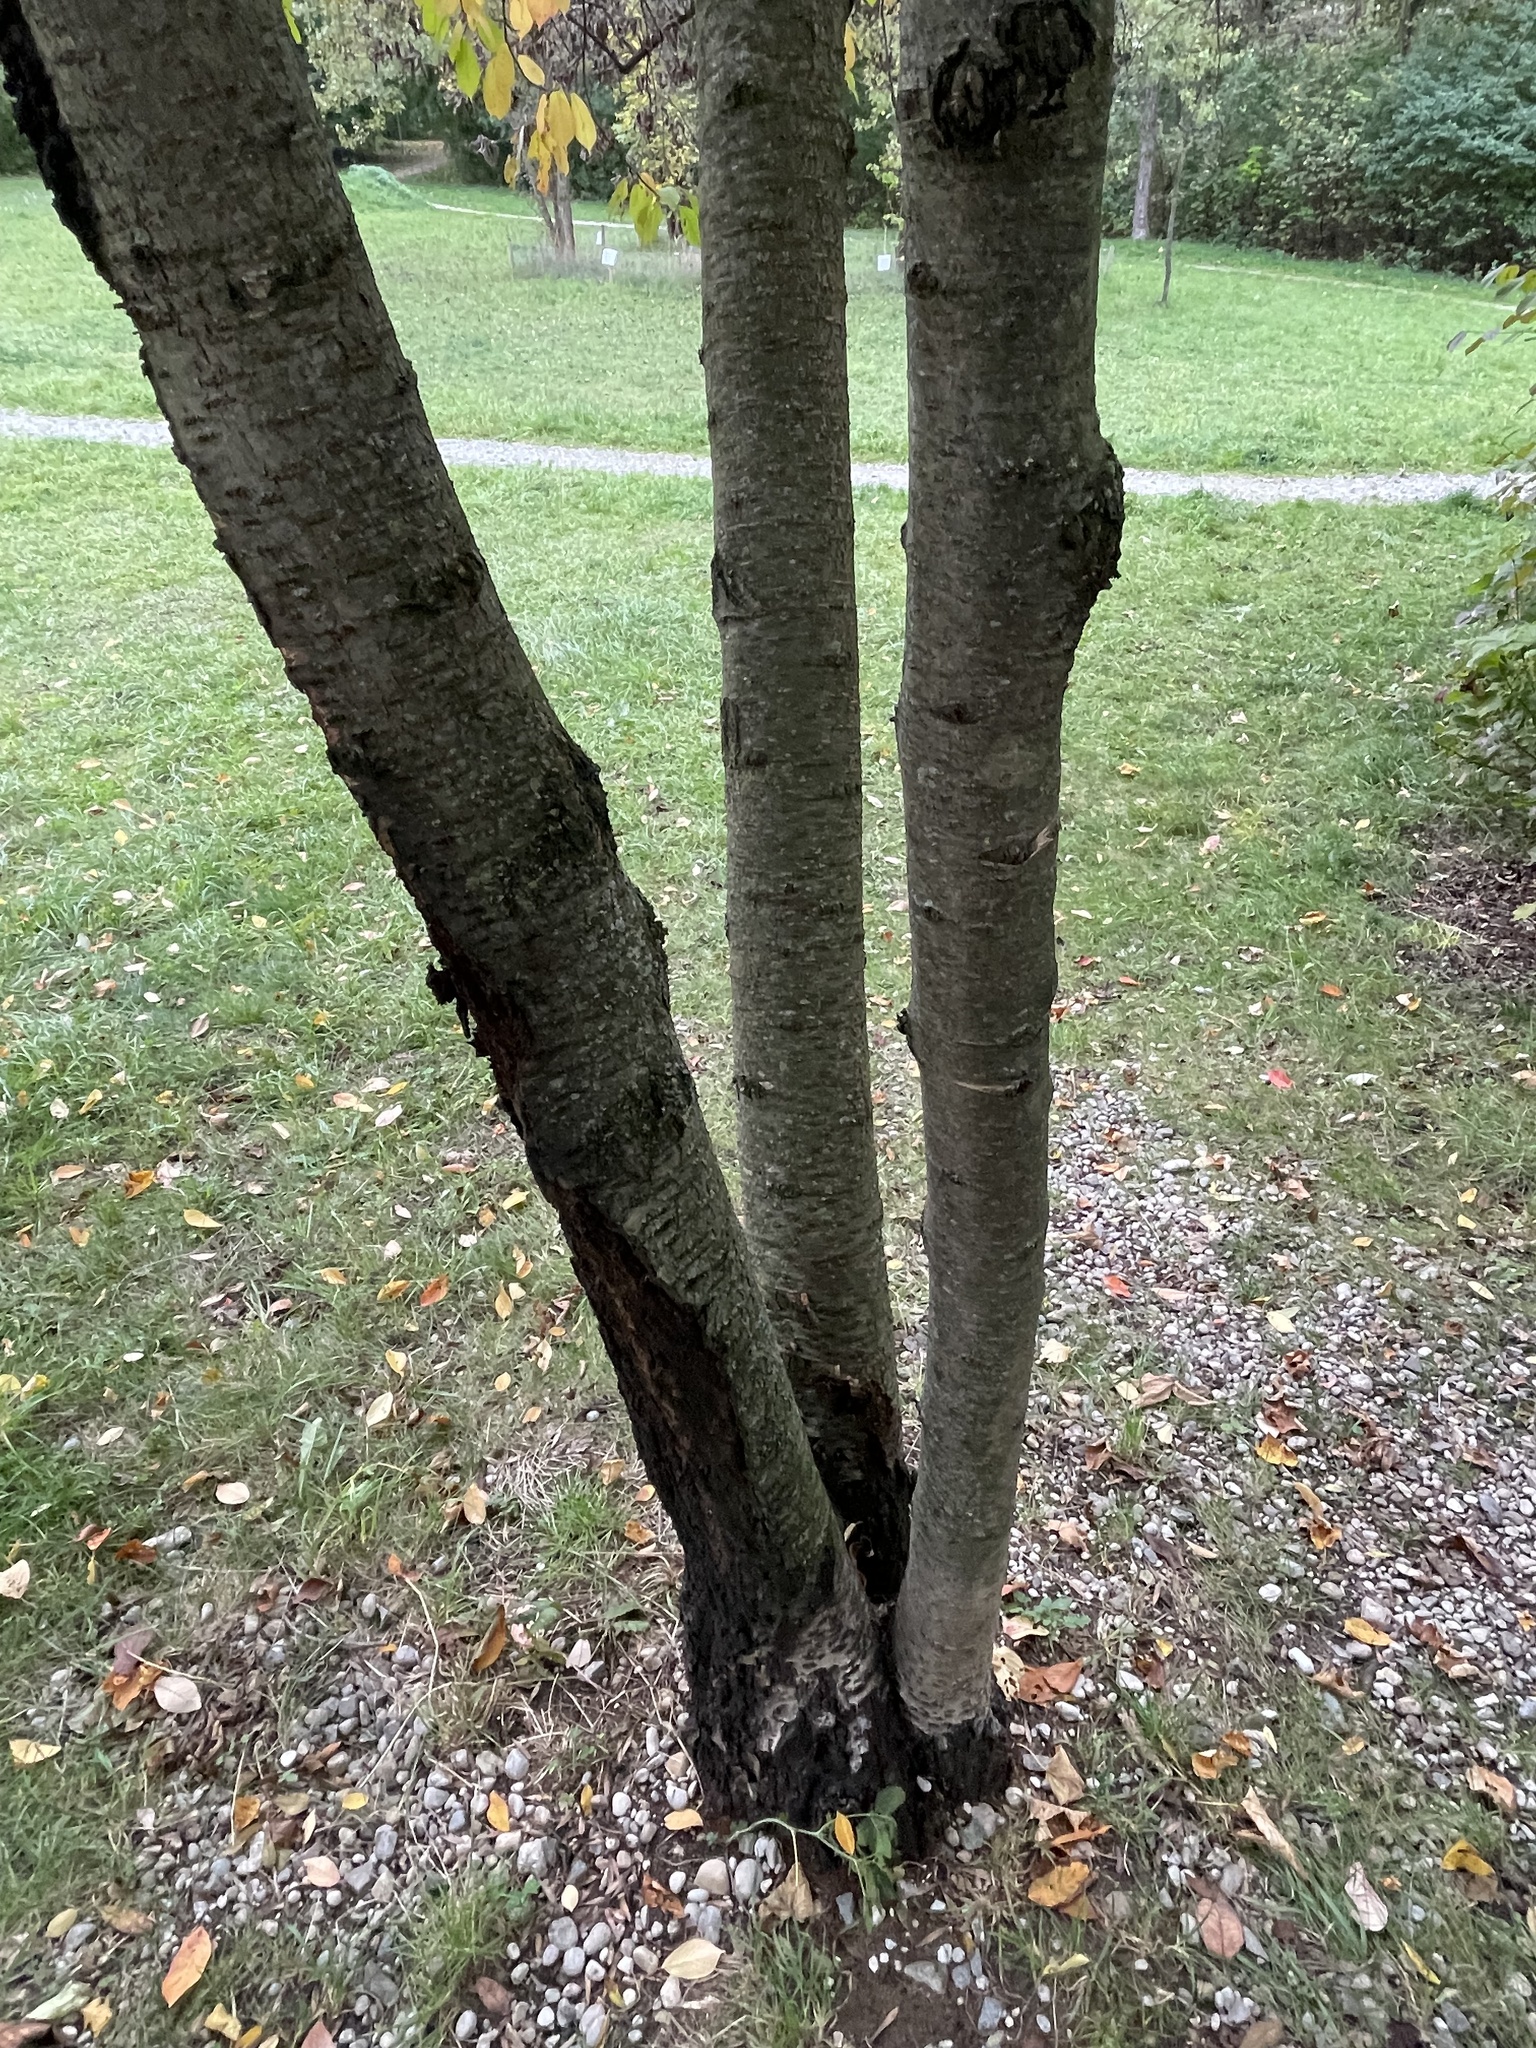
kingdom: Plantae
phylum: Tracheophyta
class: Magnoliopsida
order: Rosales
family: Rosaceae
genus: Prunus
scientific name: Prunus avium
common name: Sweet cherry
